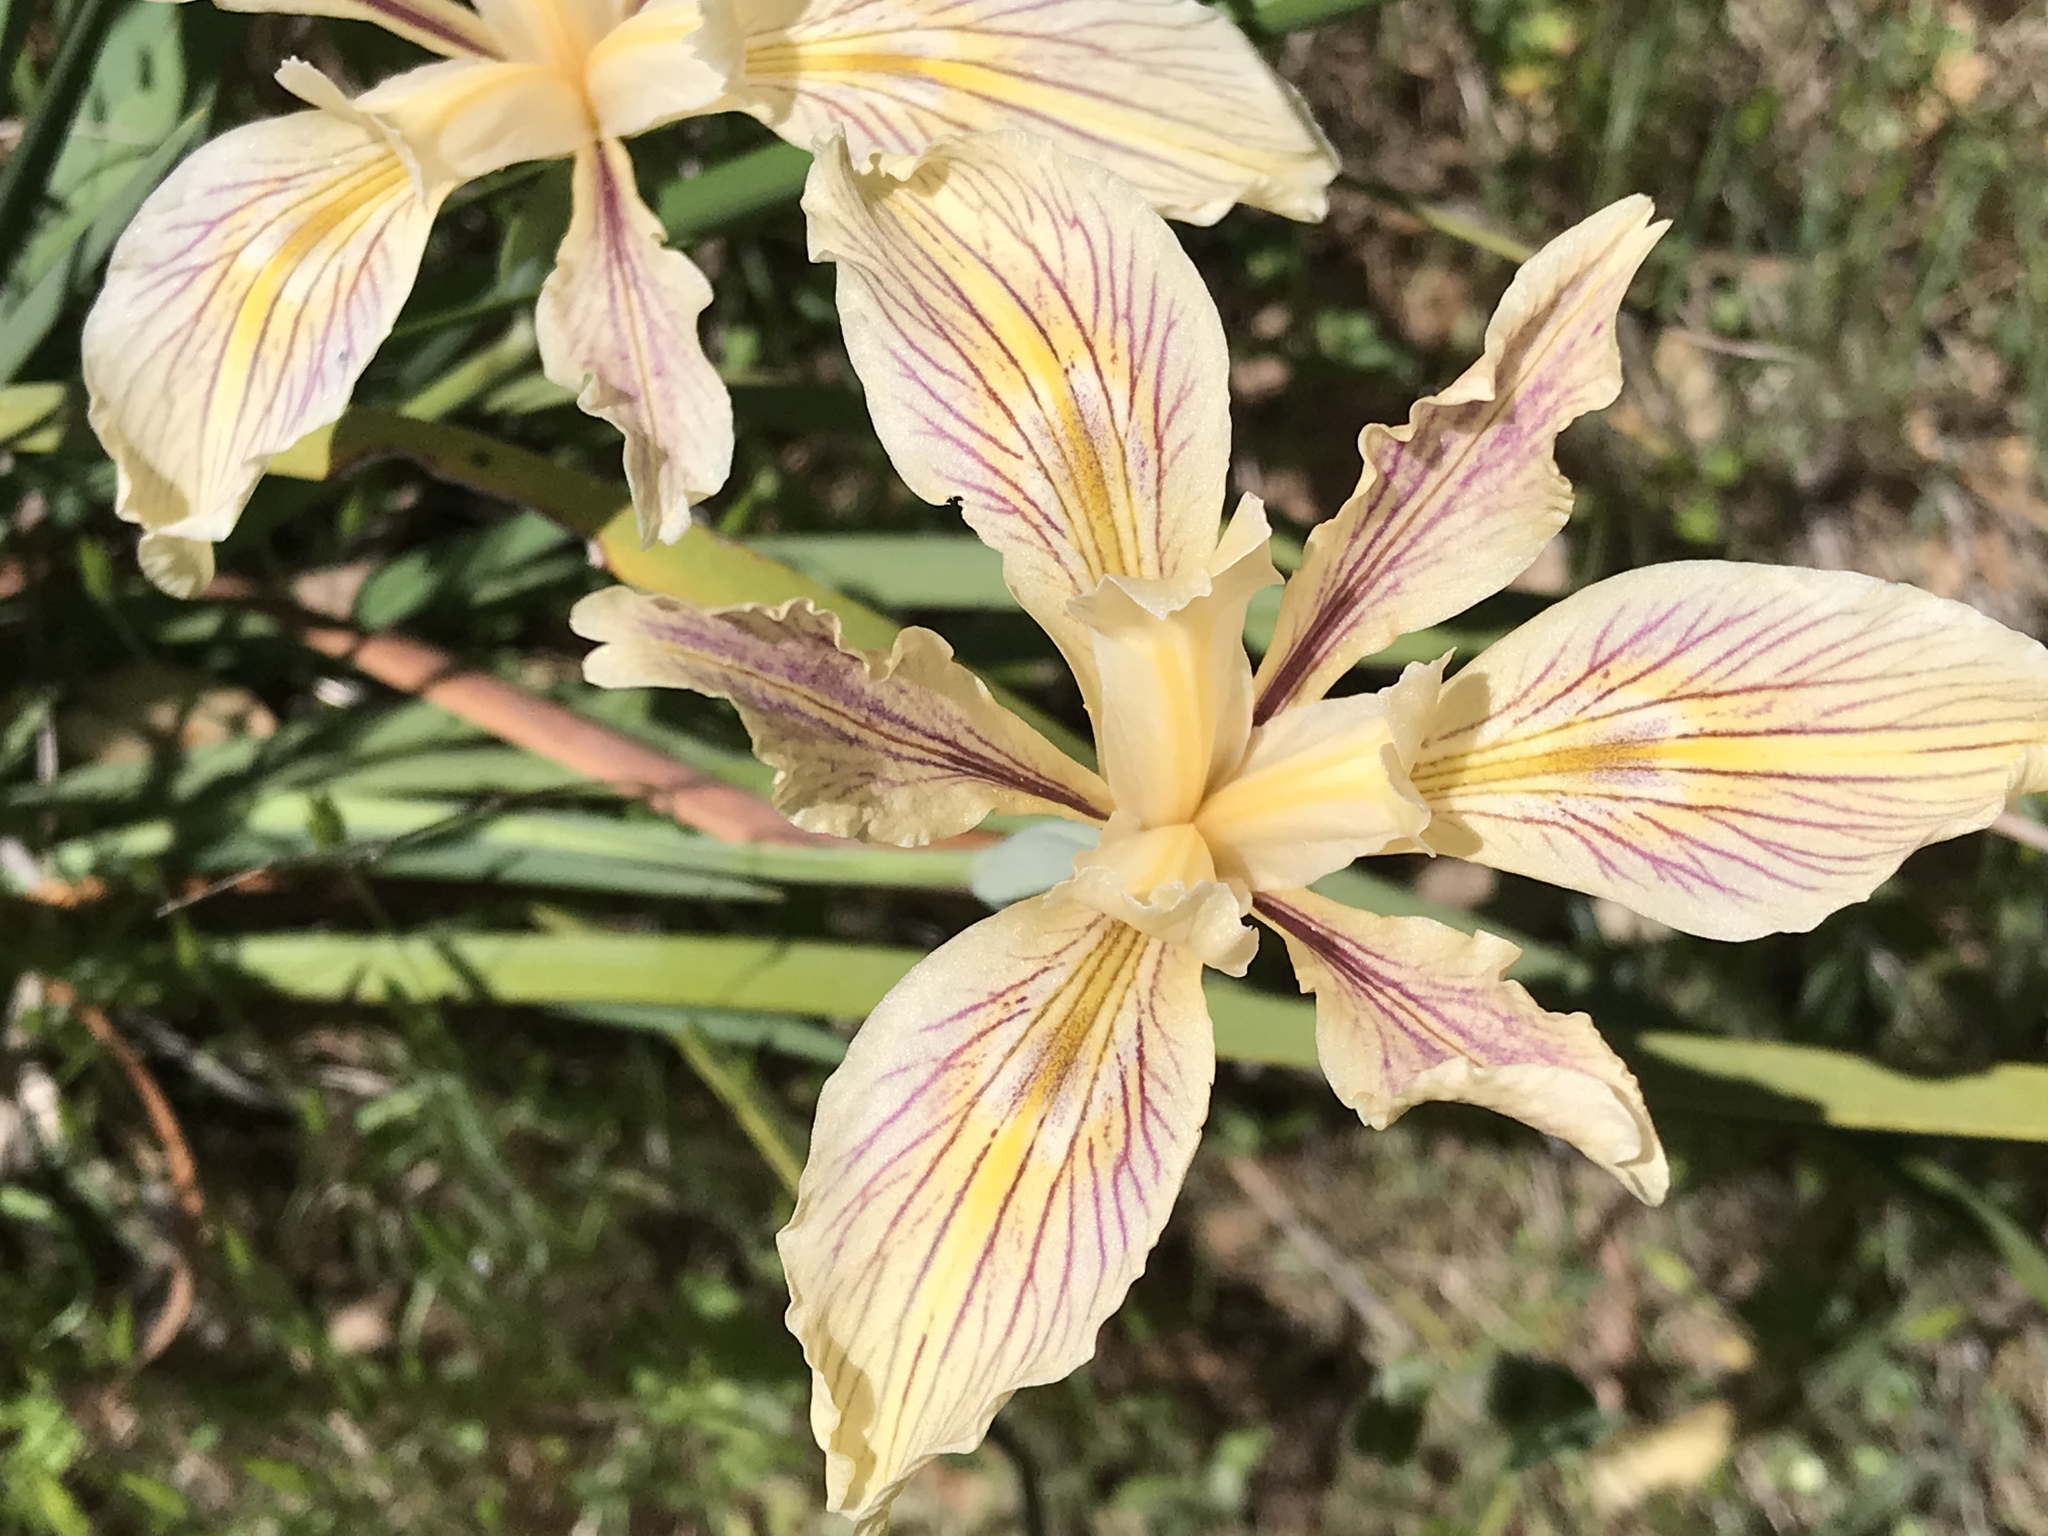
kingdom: Plantae
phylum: Tracheophyta
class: Liliopsida
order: Asparagales
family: Iridaceae
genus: Iris
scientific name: Iris fernaldii
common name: Fernald's iris
